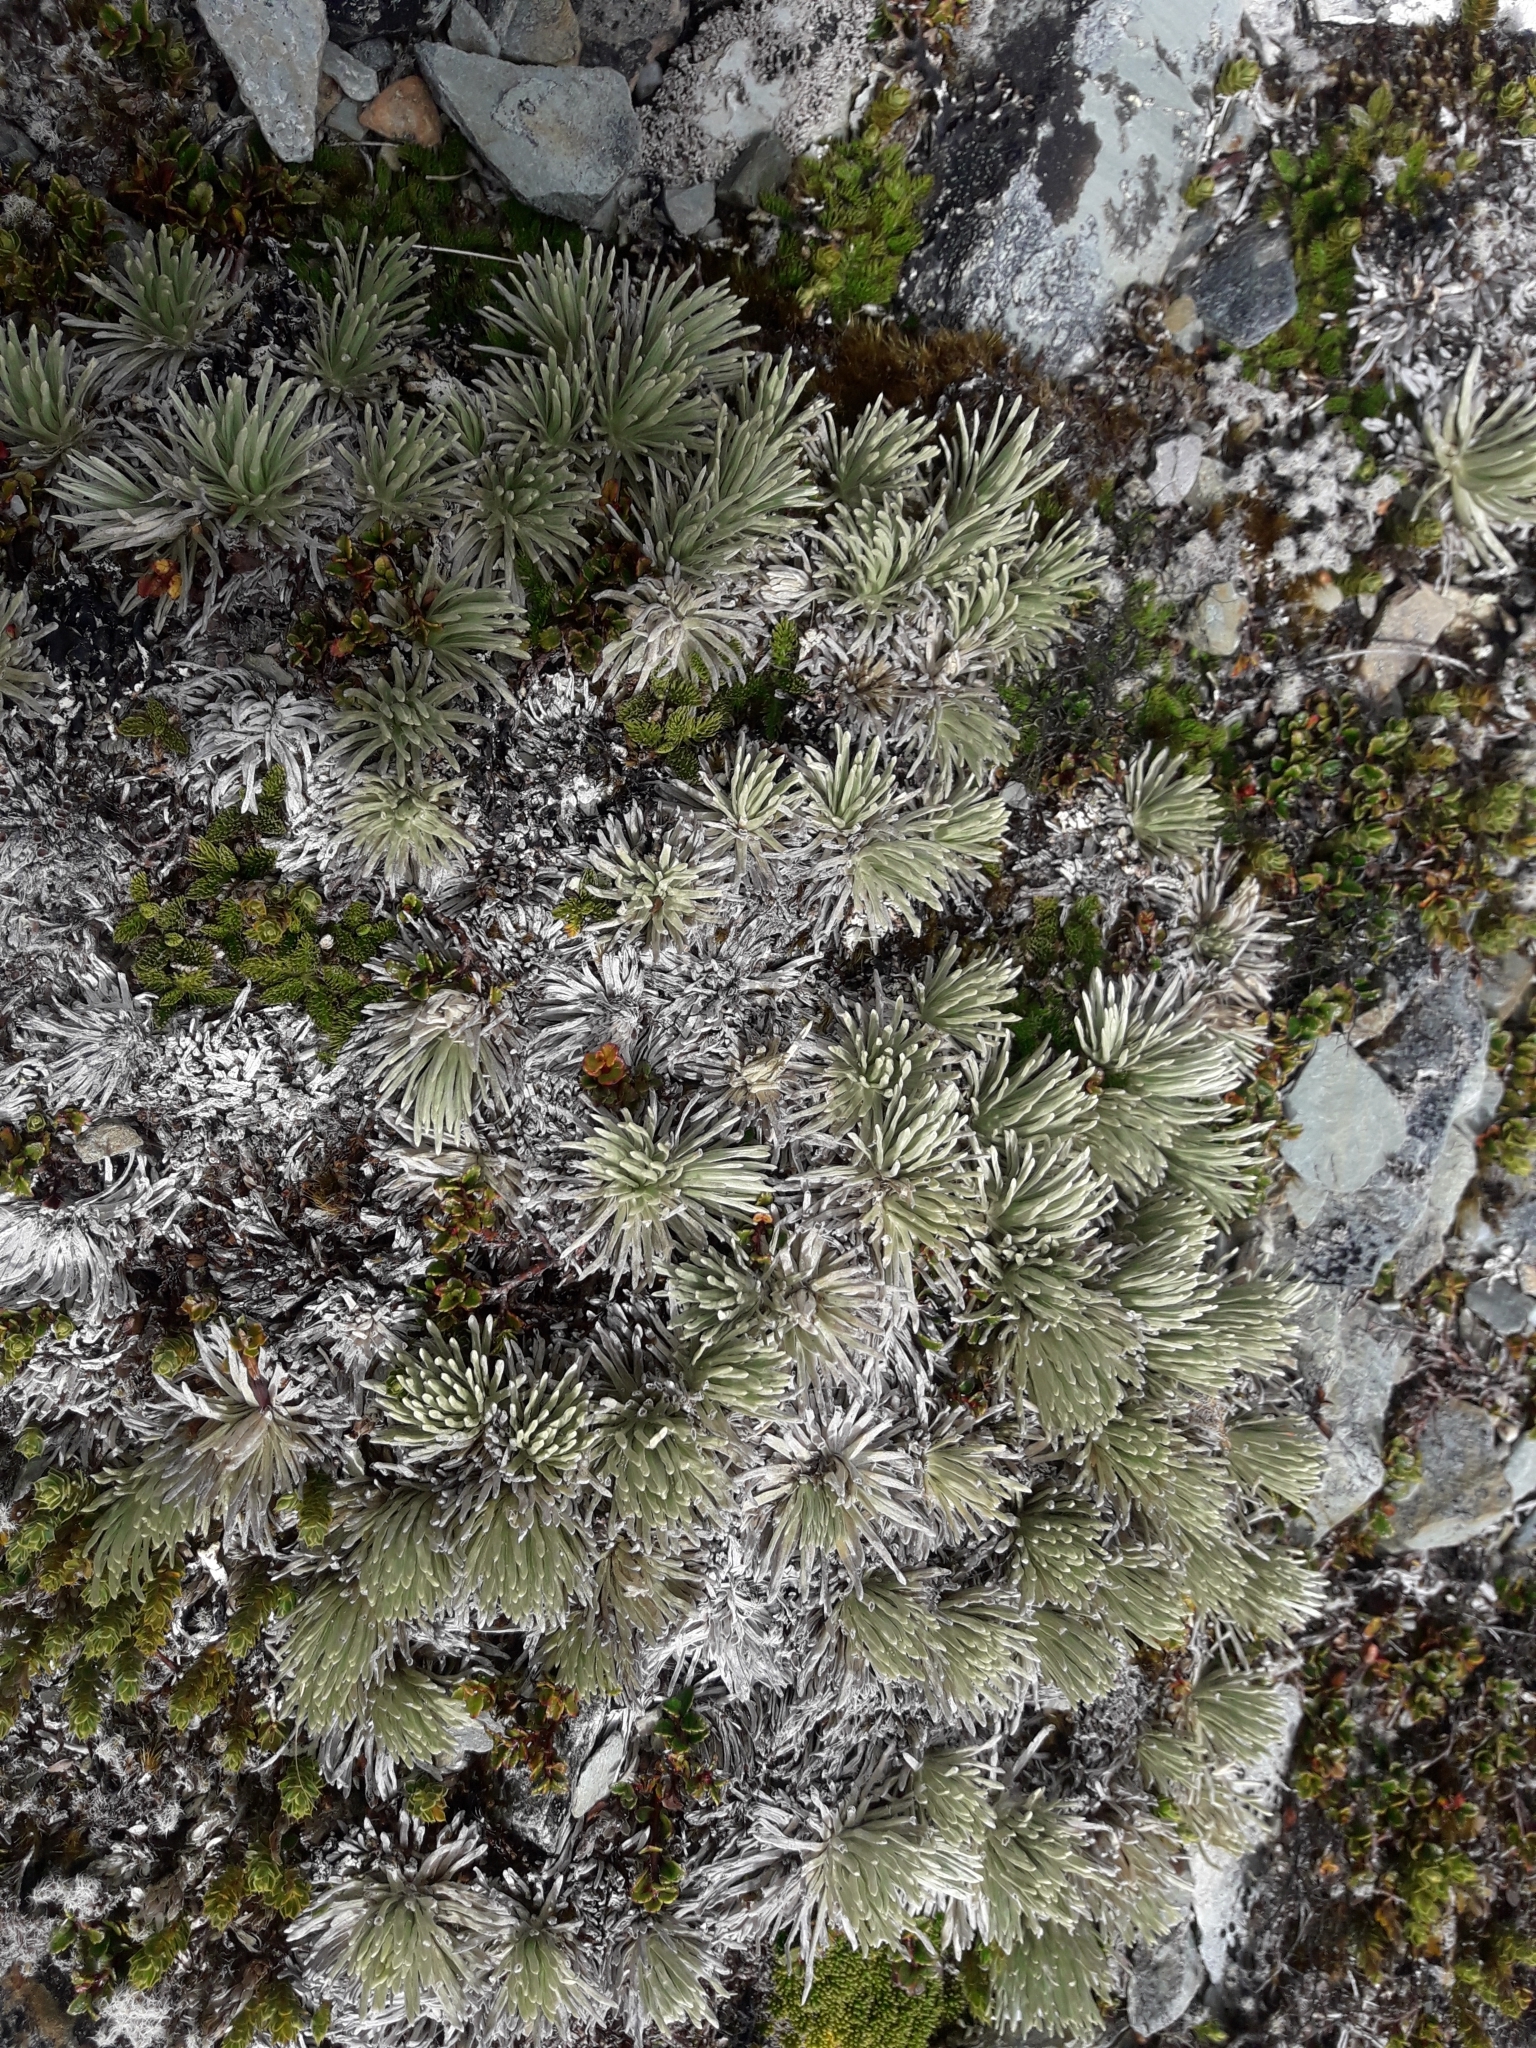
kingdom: Plantae
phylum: Tracheophyta
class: Magnoliopsida
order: Asterales
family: Asteraceae
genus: Celmisia
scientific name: Celmisia sessiliflora
